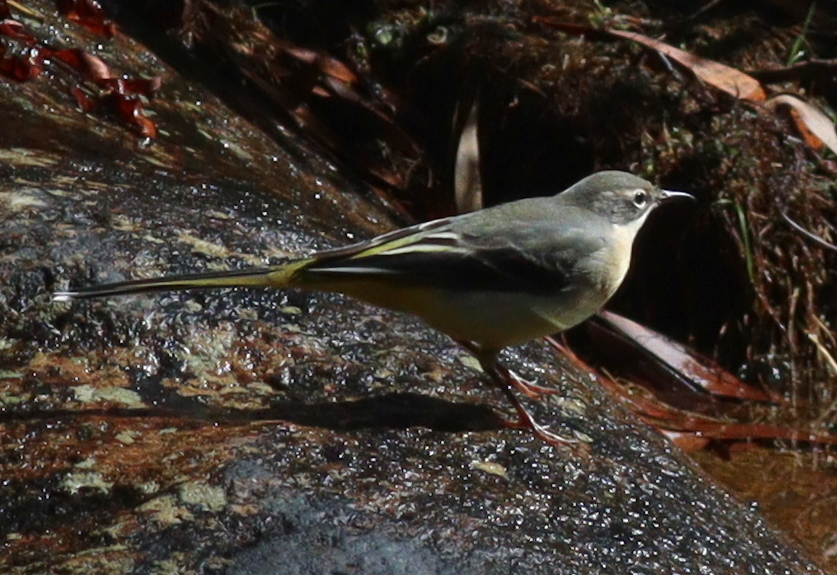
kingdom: Animalia
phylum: Chordata
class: Aves
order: Passeriformes
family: Motacillidae
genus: Motacilla
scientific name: Motacilla cinerea
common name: Grey wagtail
